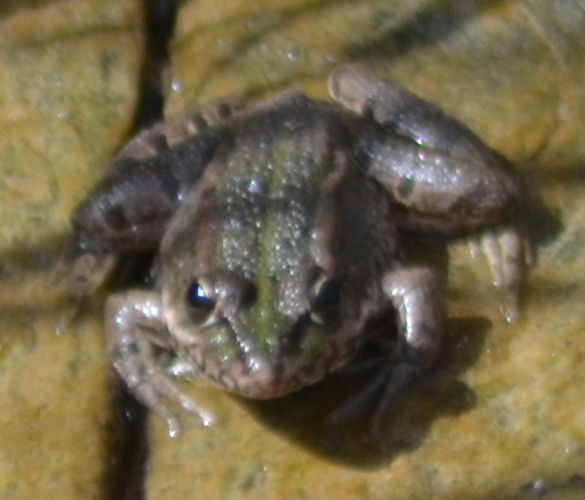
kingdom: Animalia
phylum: Chordata
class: Amphibia
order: Anura
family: Ranidae
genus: Pelophylax
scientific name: Pelophylax perezi
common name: Perez's frog
